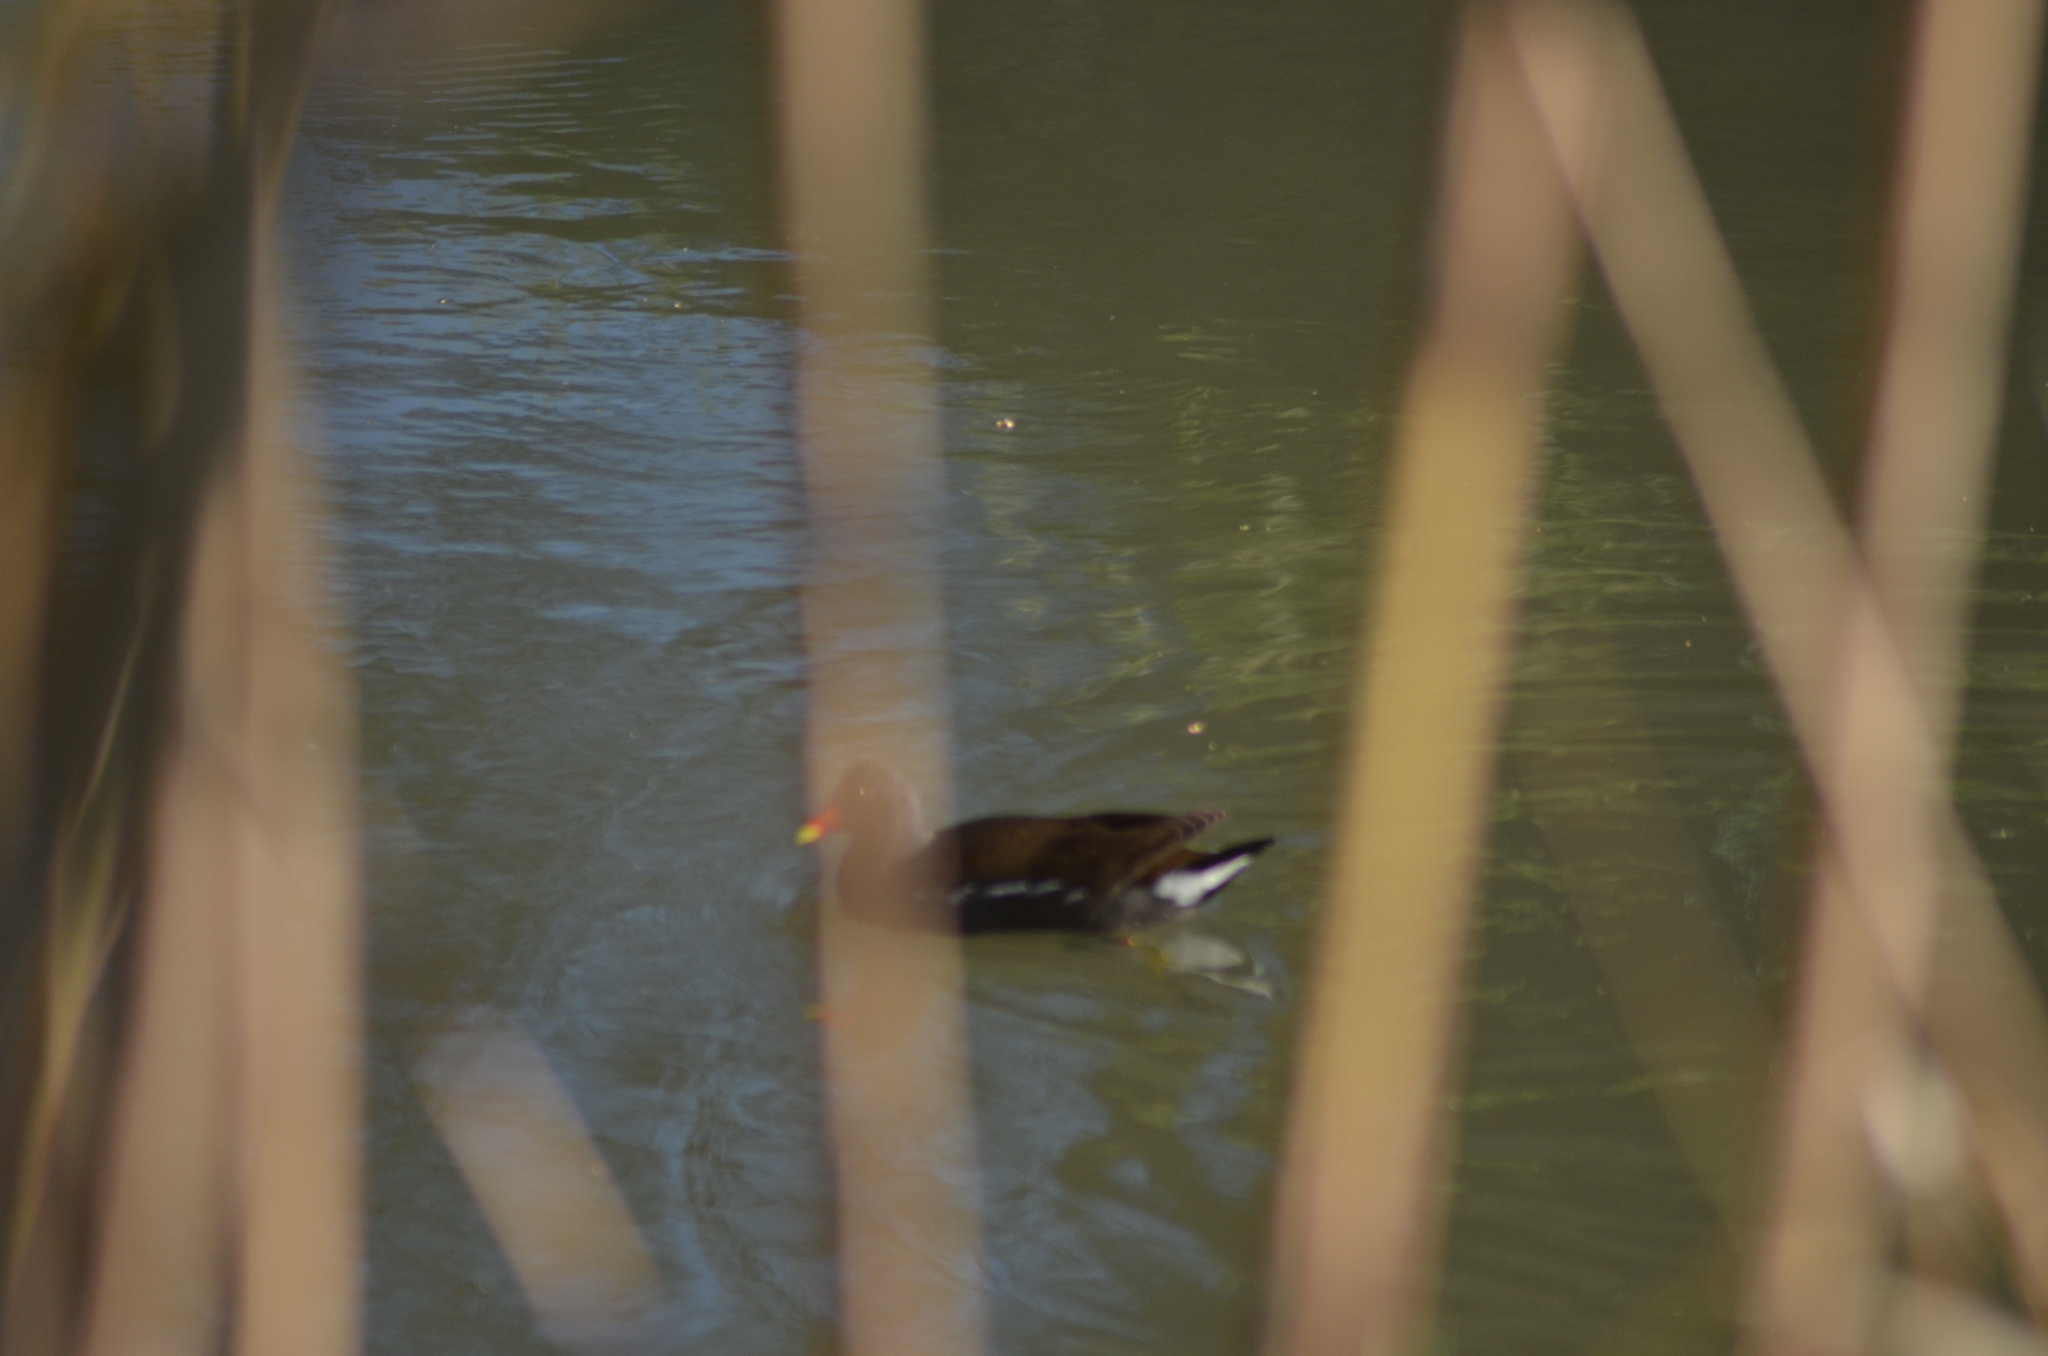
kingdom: Animalia
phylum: Chordata
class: Aves
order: Gruiformes
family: Rallidae
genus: Gallinula
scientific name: Gallinula chloropus
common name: Common moorhen
